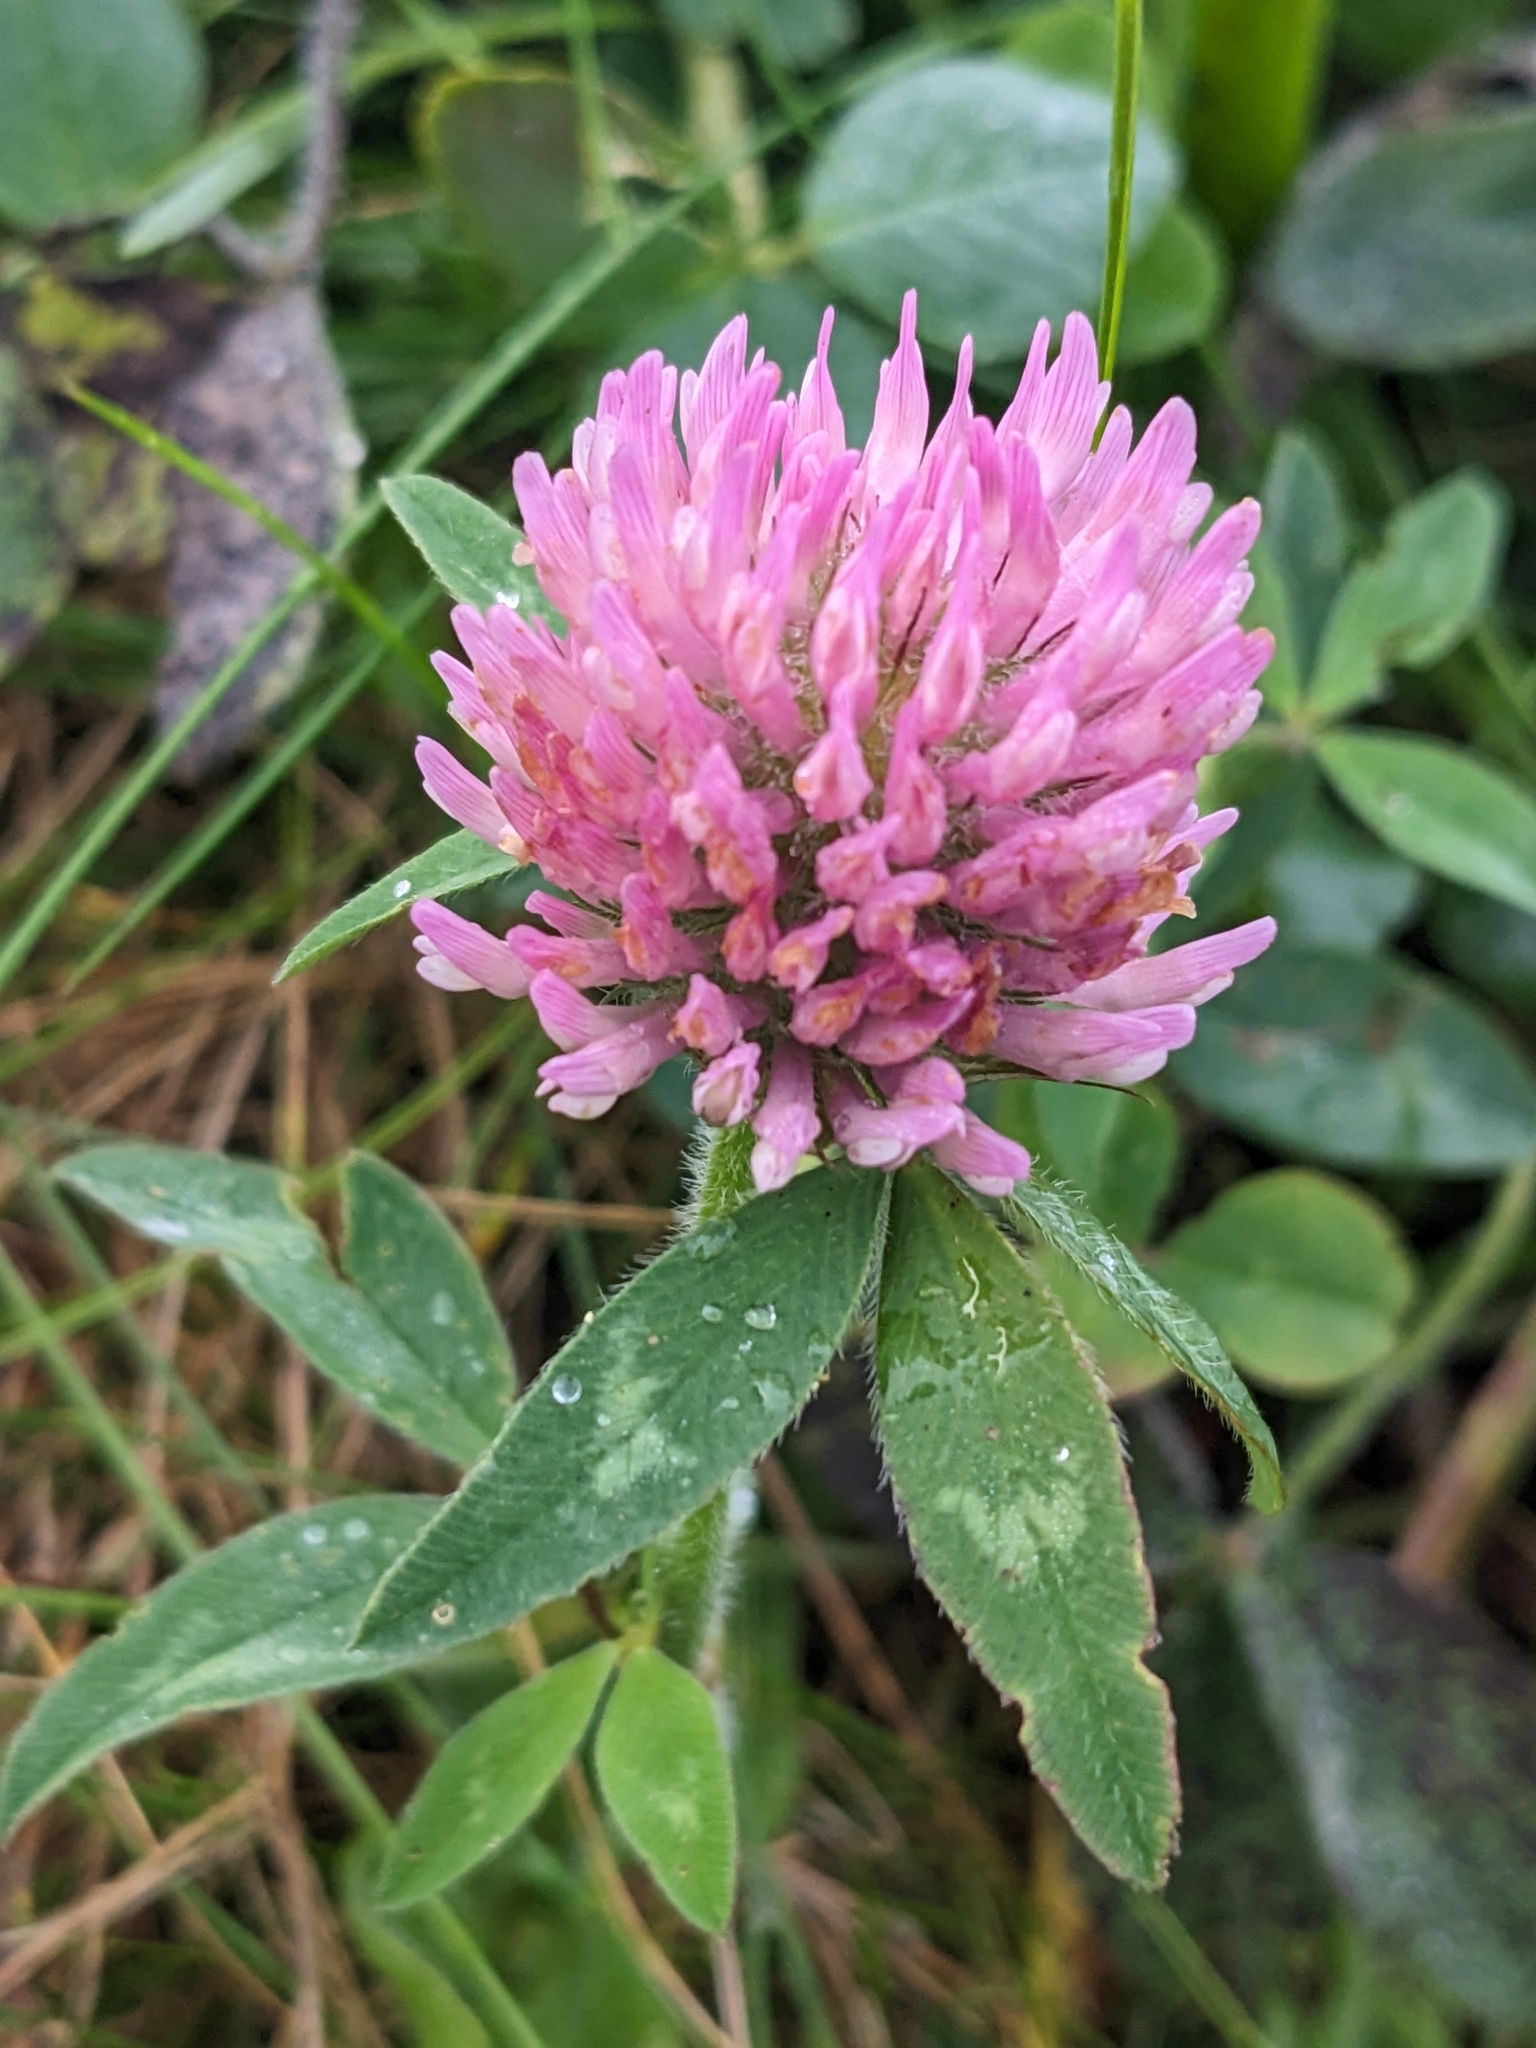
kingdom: Plantae
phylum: Tracheophyta
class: Magnoliopsida
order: Fabales
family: Fabaceae
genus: Trifolium
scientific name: Trifolium pratense
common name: Red clover
